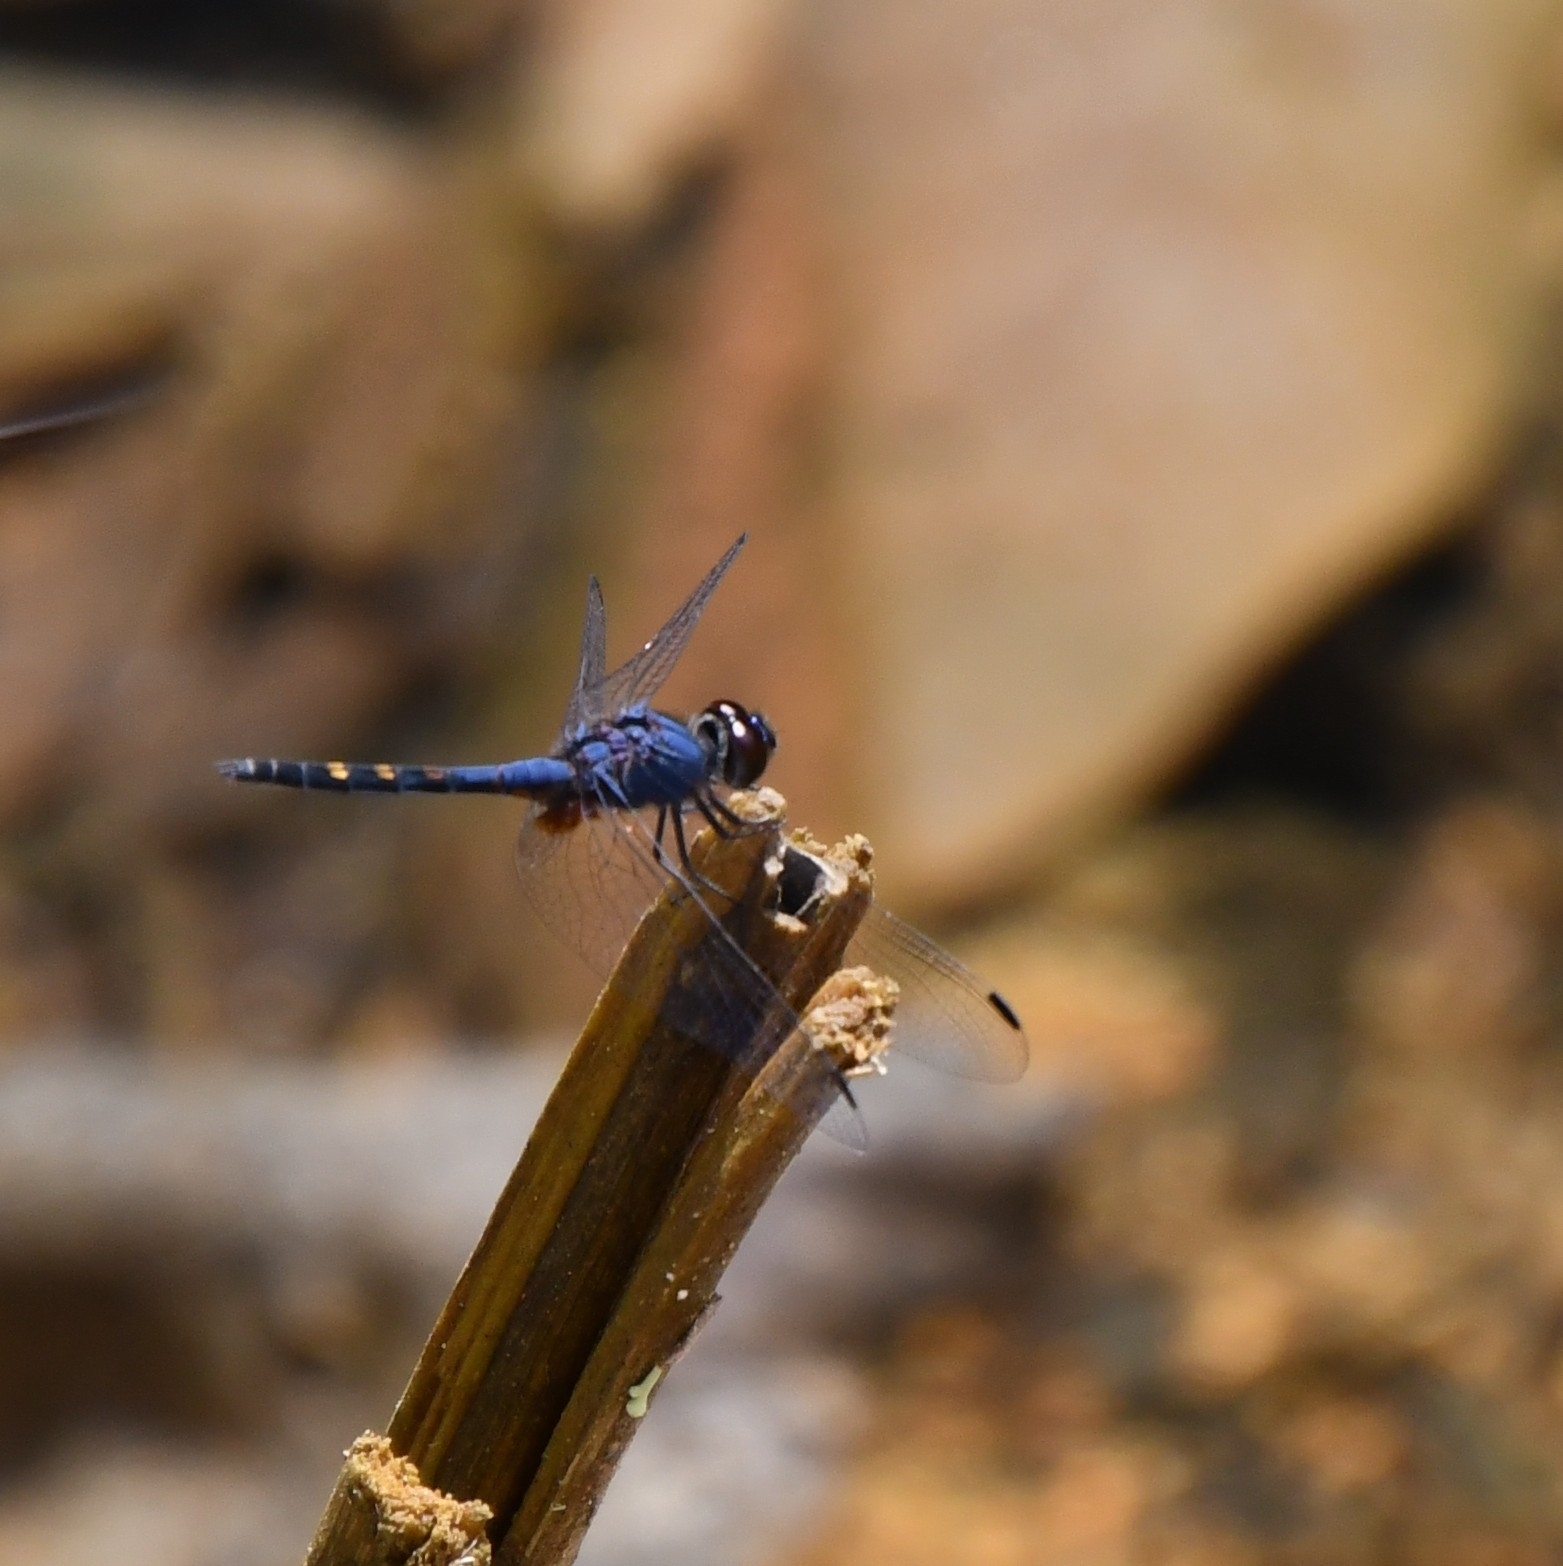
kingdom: Animalia
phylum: Arthropoda
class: Insecta
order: Odonata
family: Libellulidae
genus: Trithemis
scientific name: Trithemis festiva
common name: Indigo dropwing
